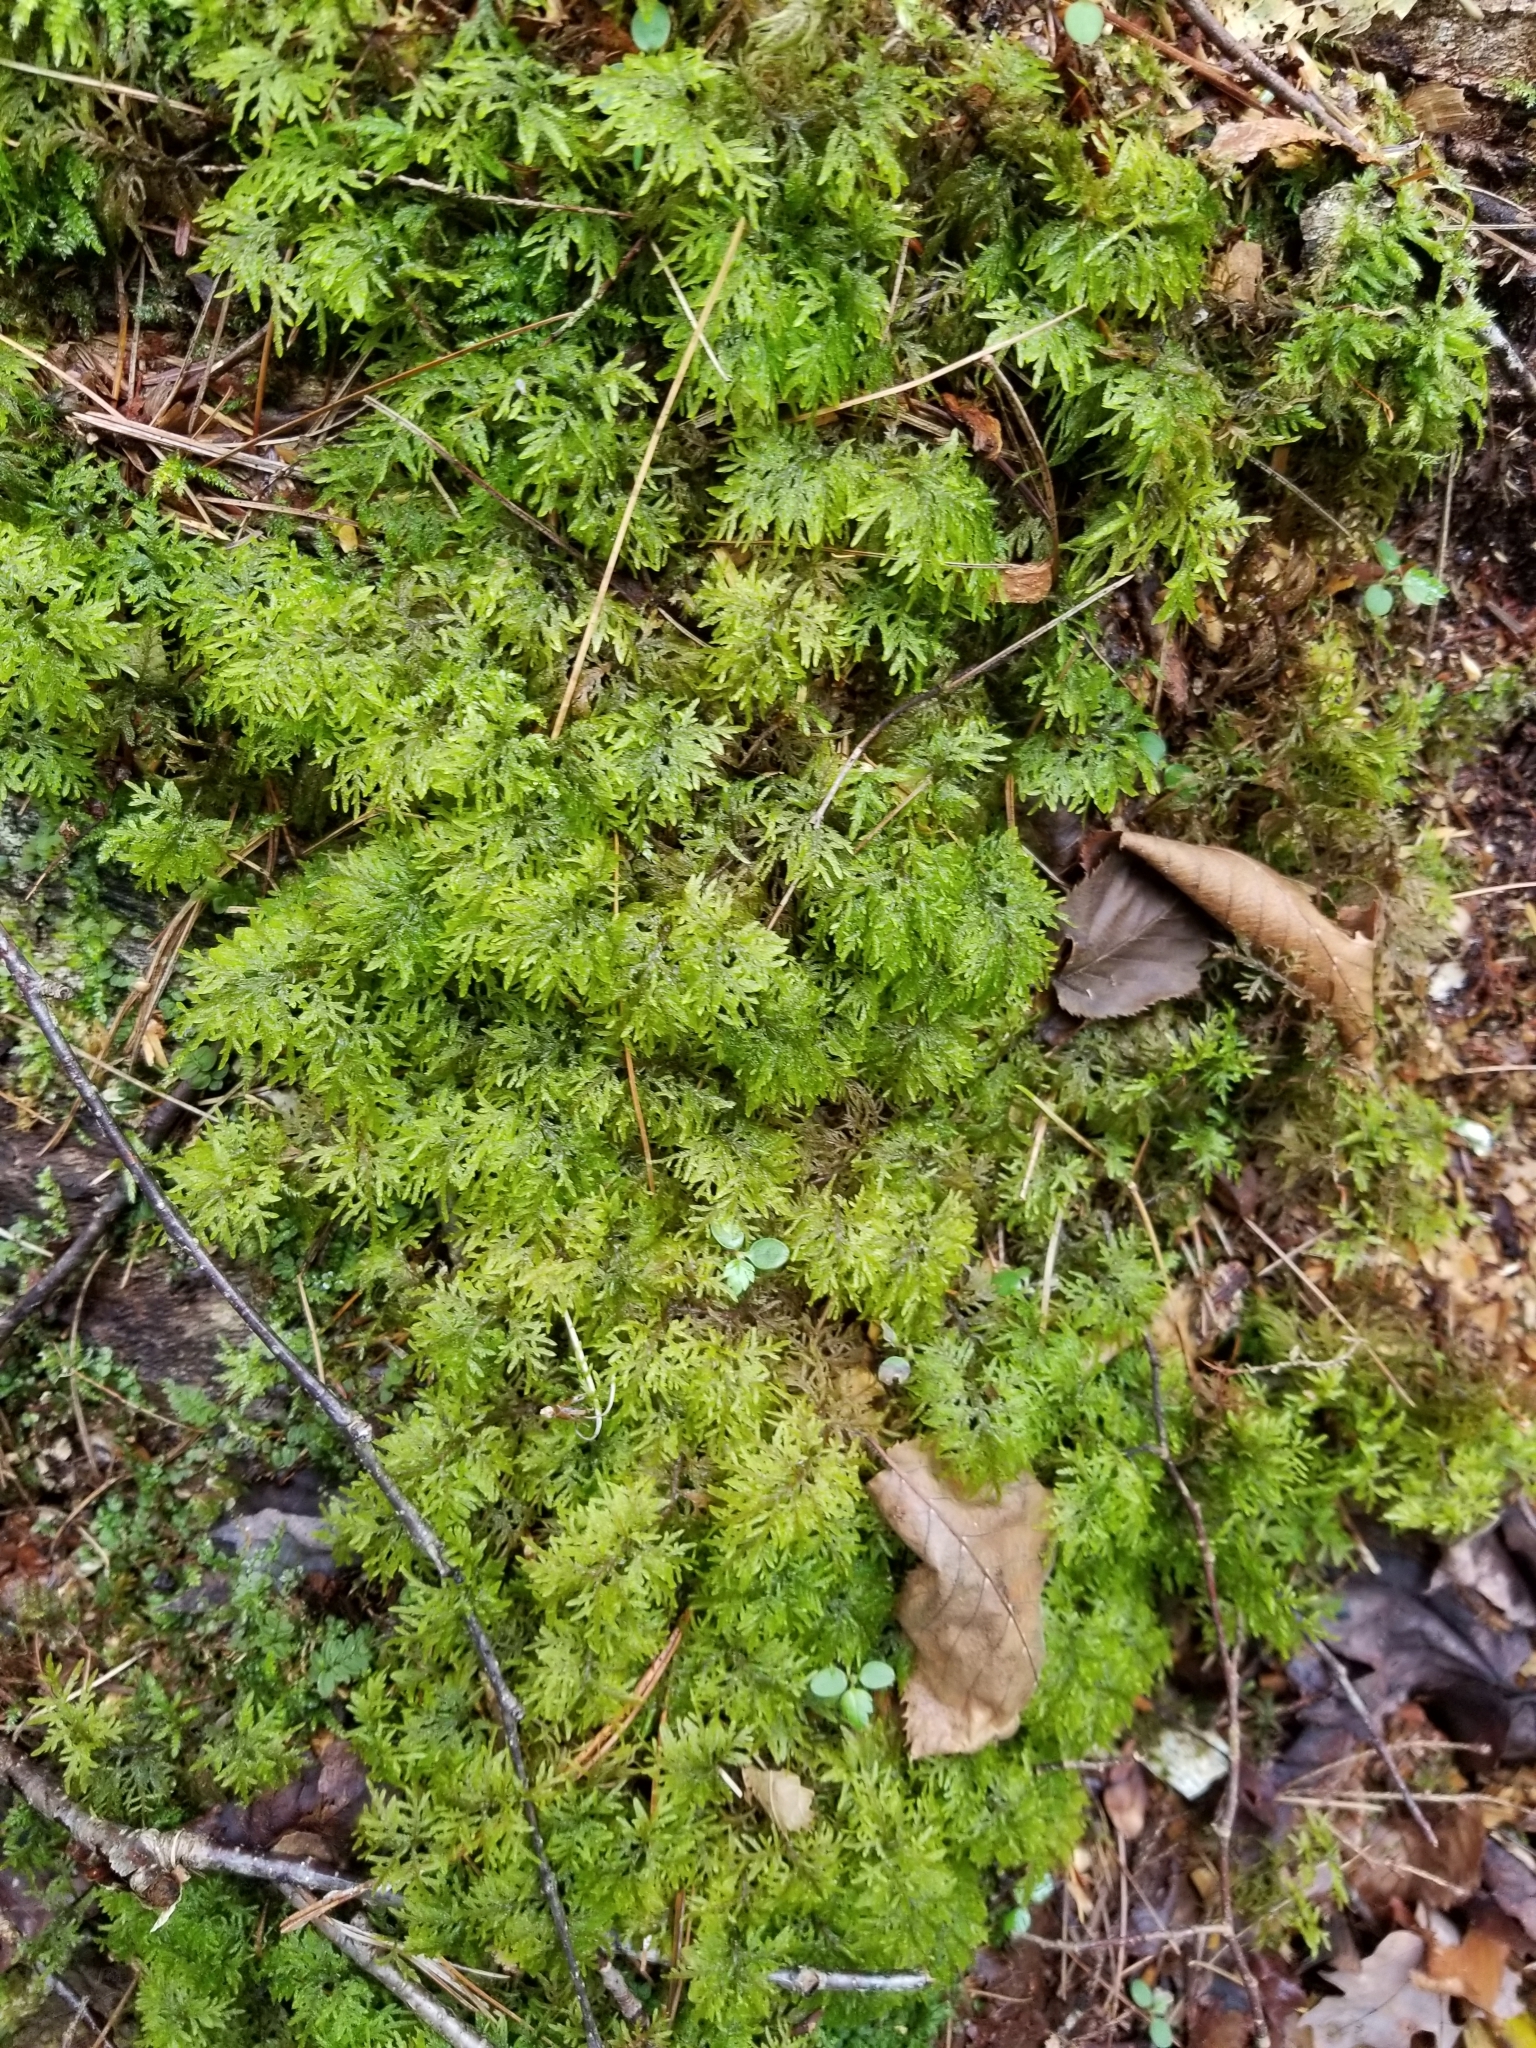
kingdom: Plantae
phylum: Bryophyta
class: Bryopsida
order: Hypnales
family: Hylocomiaceae
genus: Hylocomium
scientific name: Hylocomium splendens
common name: Stairstep moss
